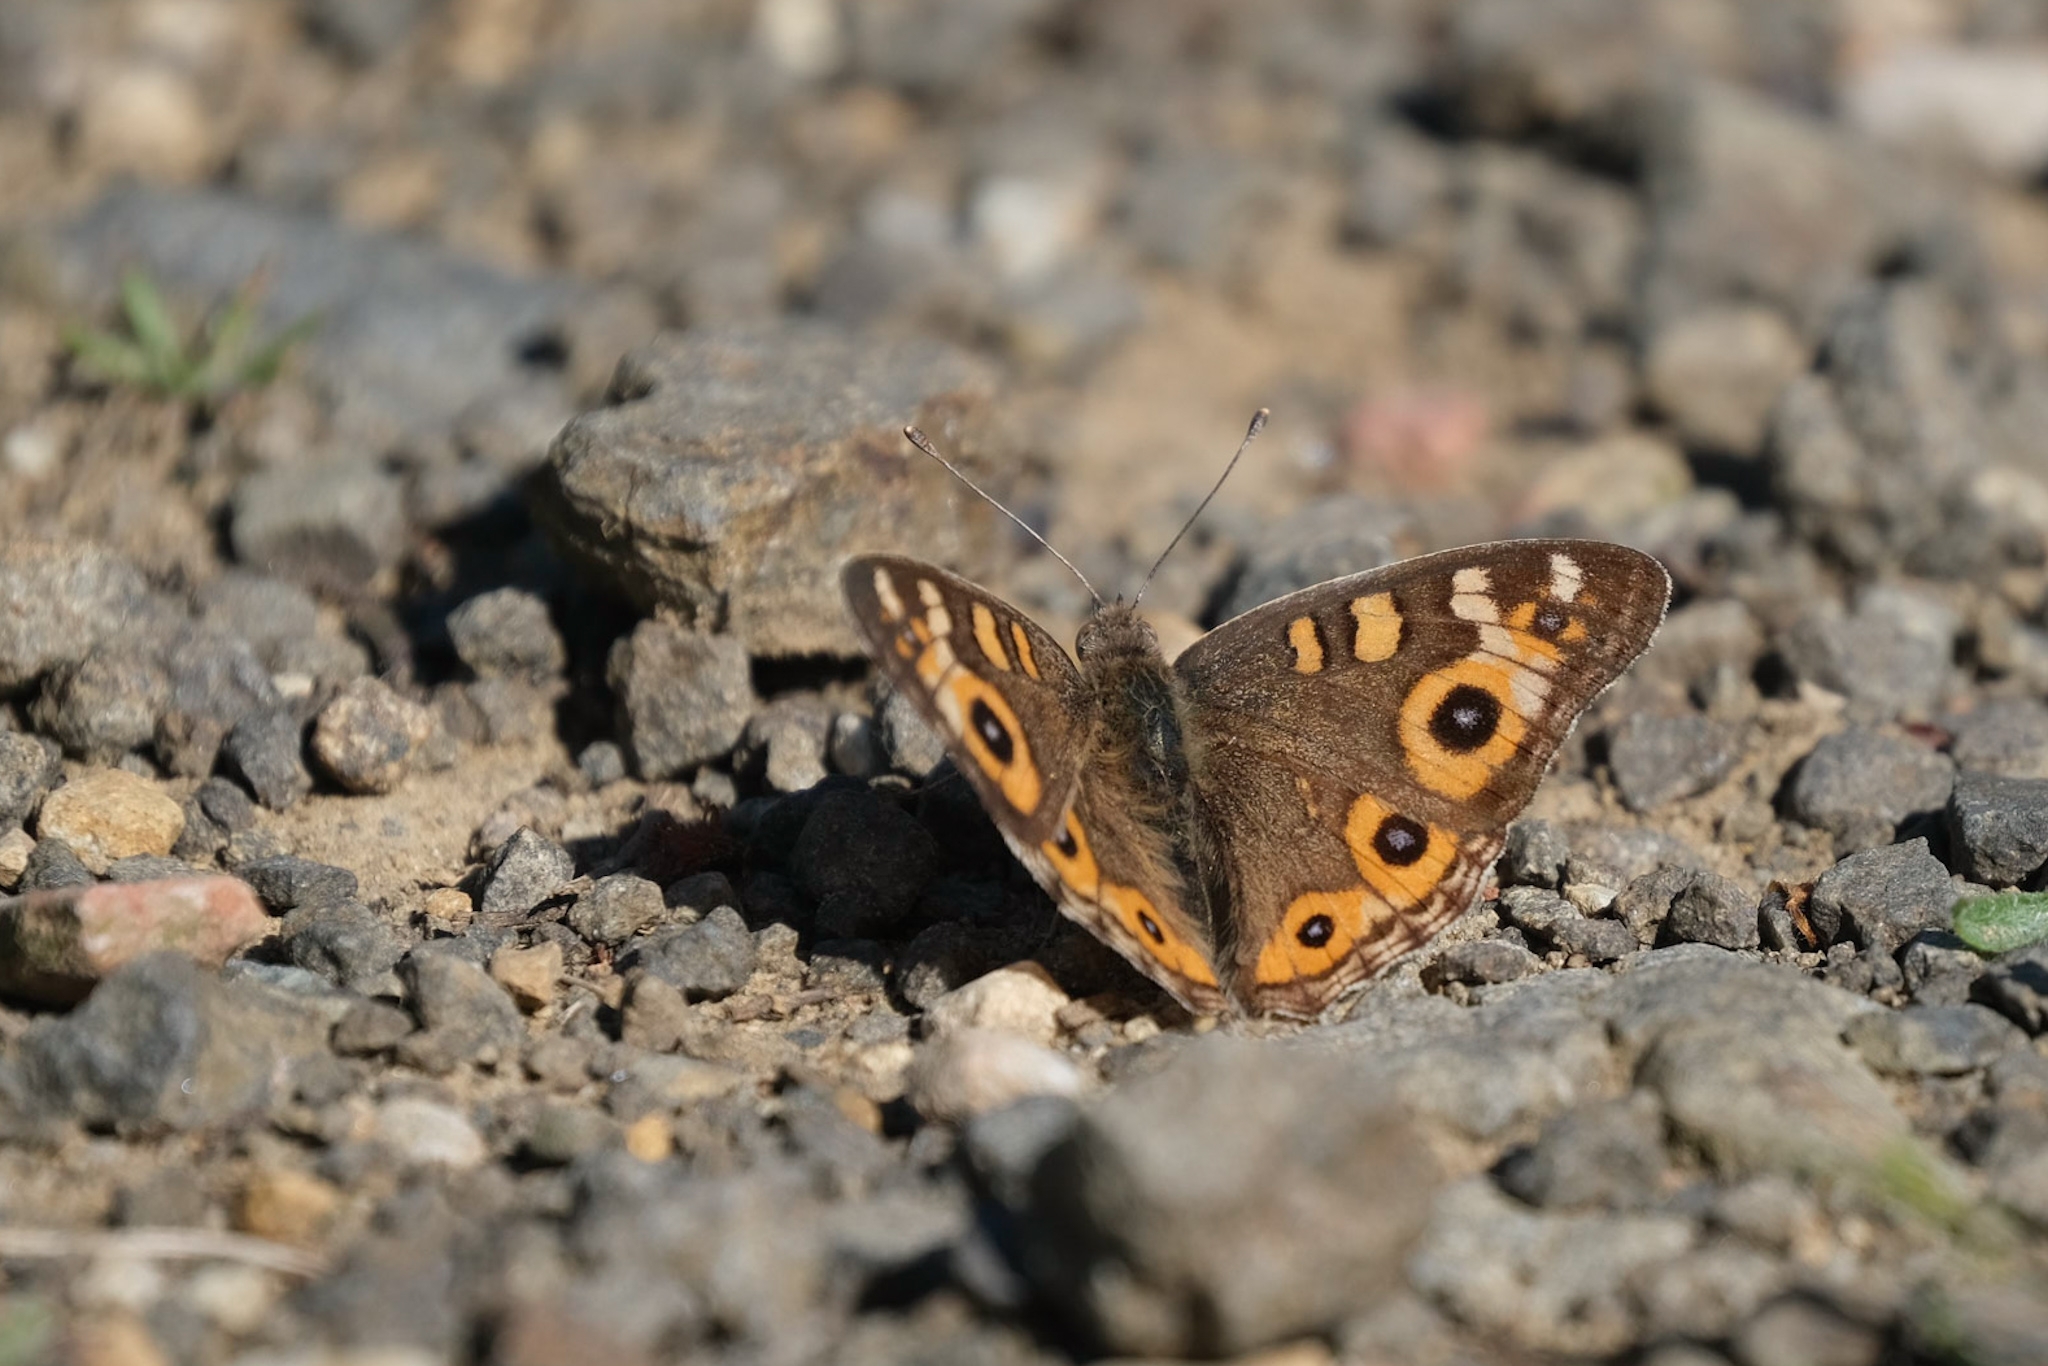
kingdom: Animalia
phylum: Arthropoda
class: Insecta
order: Lepidoptera
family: Nymphalidae
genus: Junonia
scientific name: Junonia villida
